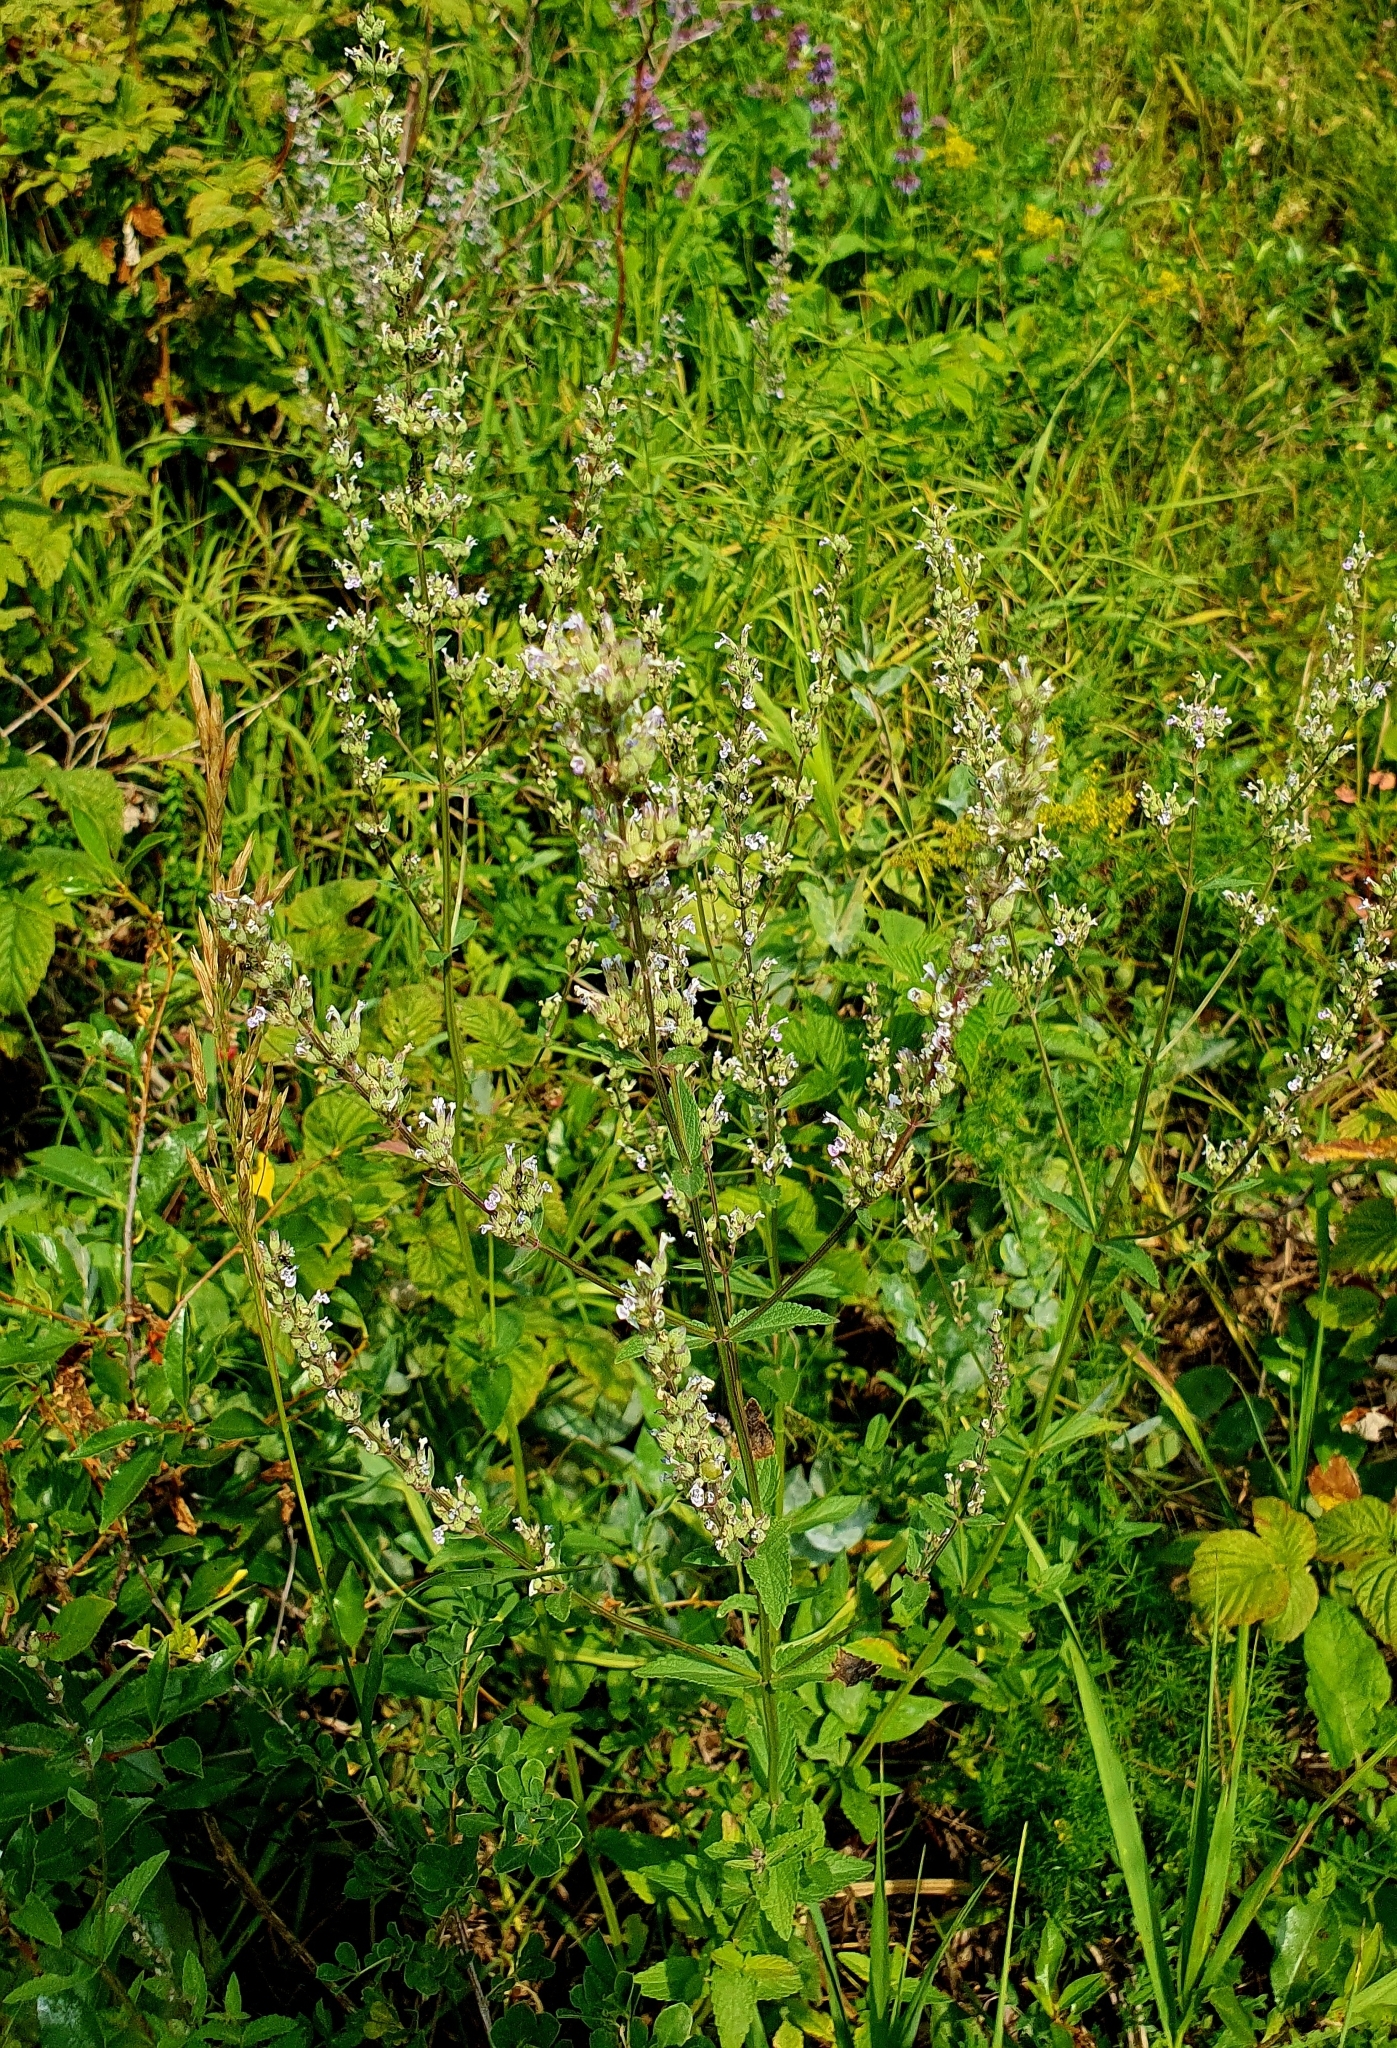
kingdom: Plantae
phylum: Tracheophyta
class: Magnoliopsida
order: Lamiales
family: Lamiaceae
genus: Nepeta
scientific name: Nepeta nuda
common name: Hairless catmint
